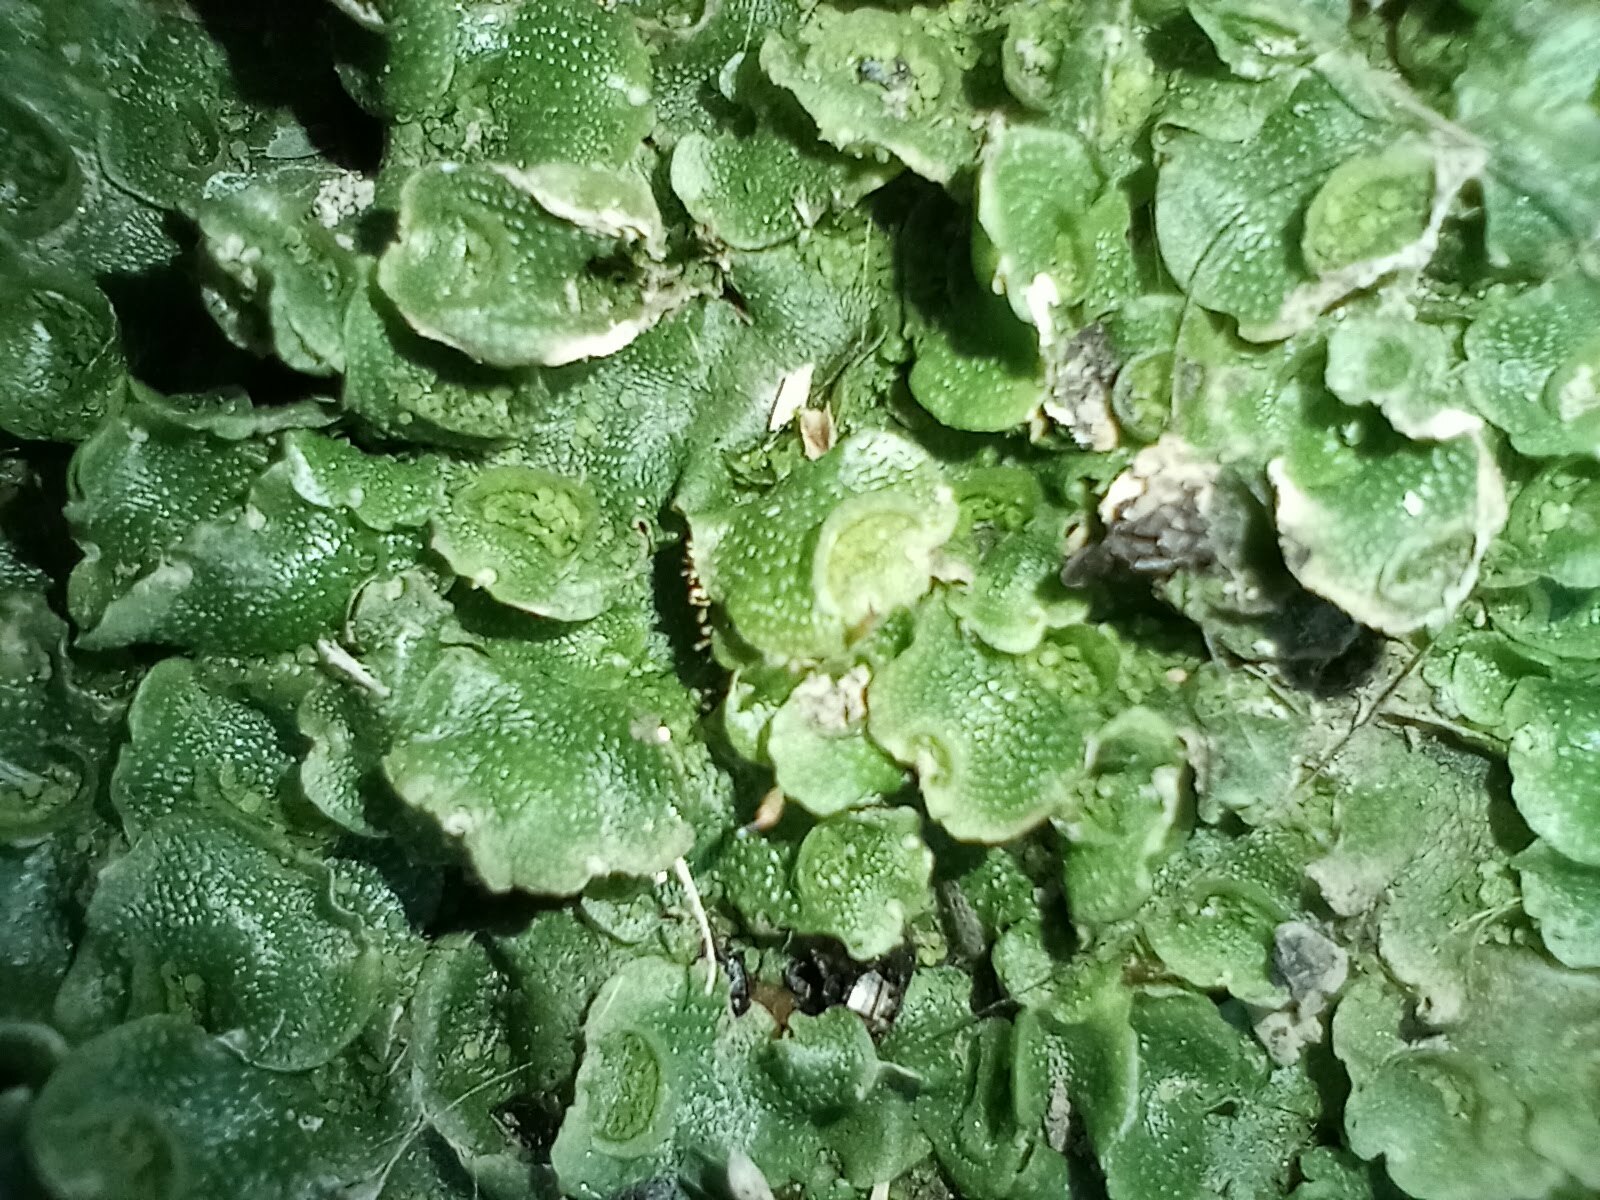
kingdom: Plantae
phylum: Marchantiophyta
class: Marchantiopsida
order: Lunulariales
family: Lunulariaceae
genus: Lunularia
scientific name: Lunularia cruciata
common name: Crescent-cup liverwort
